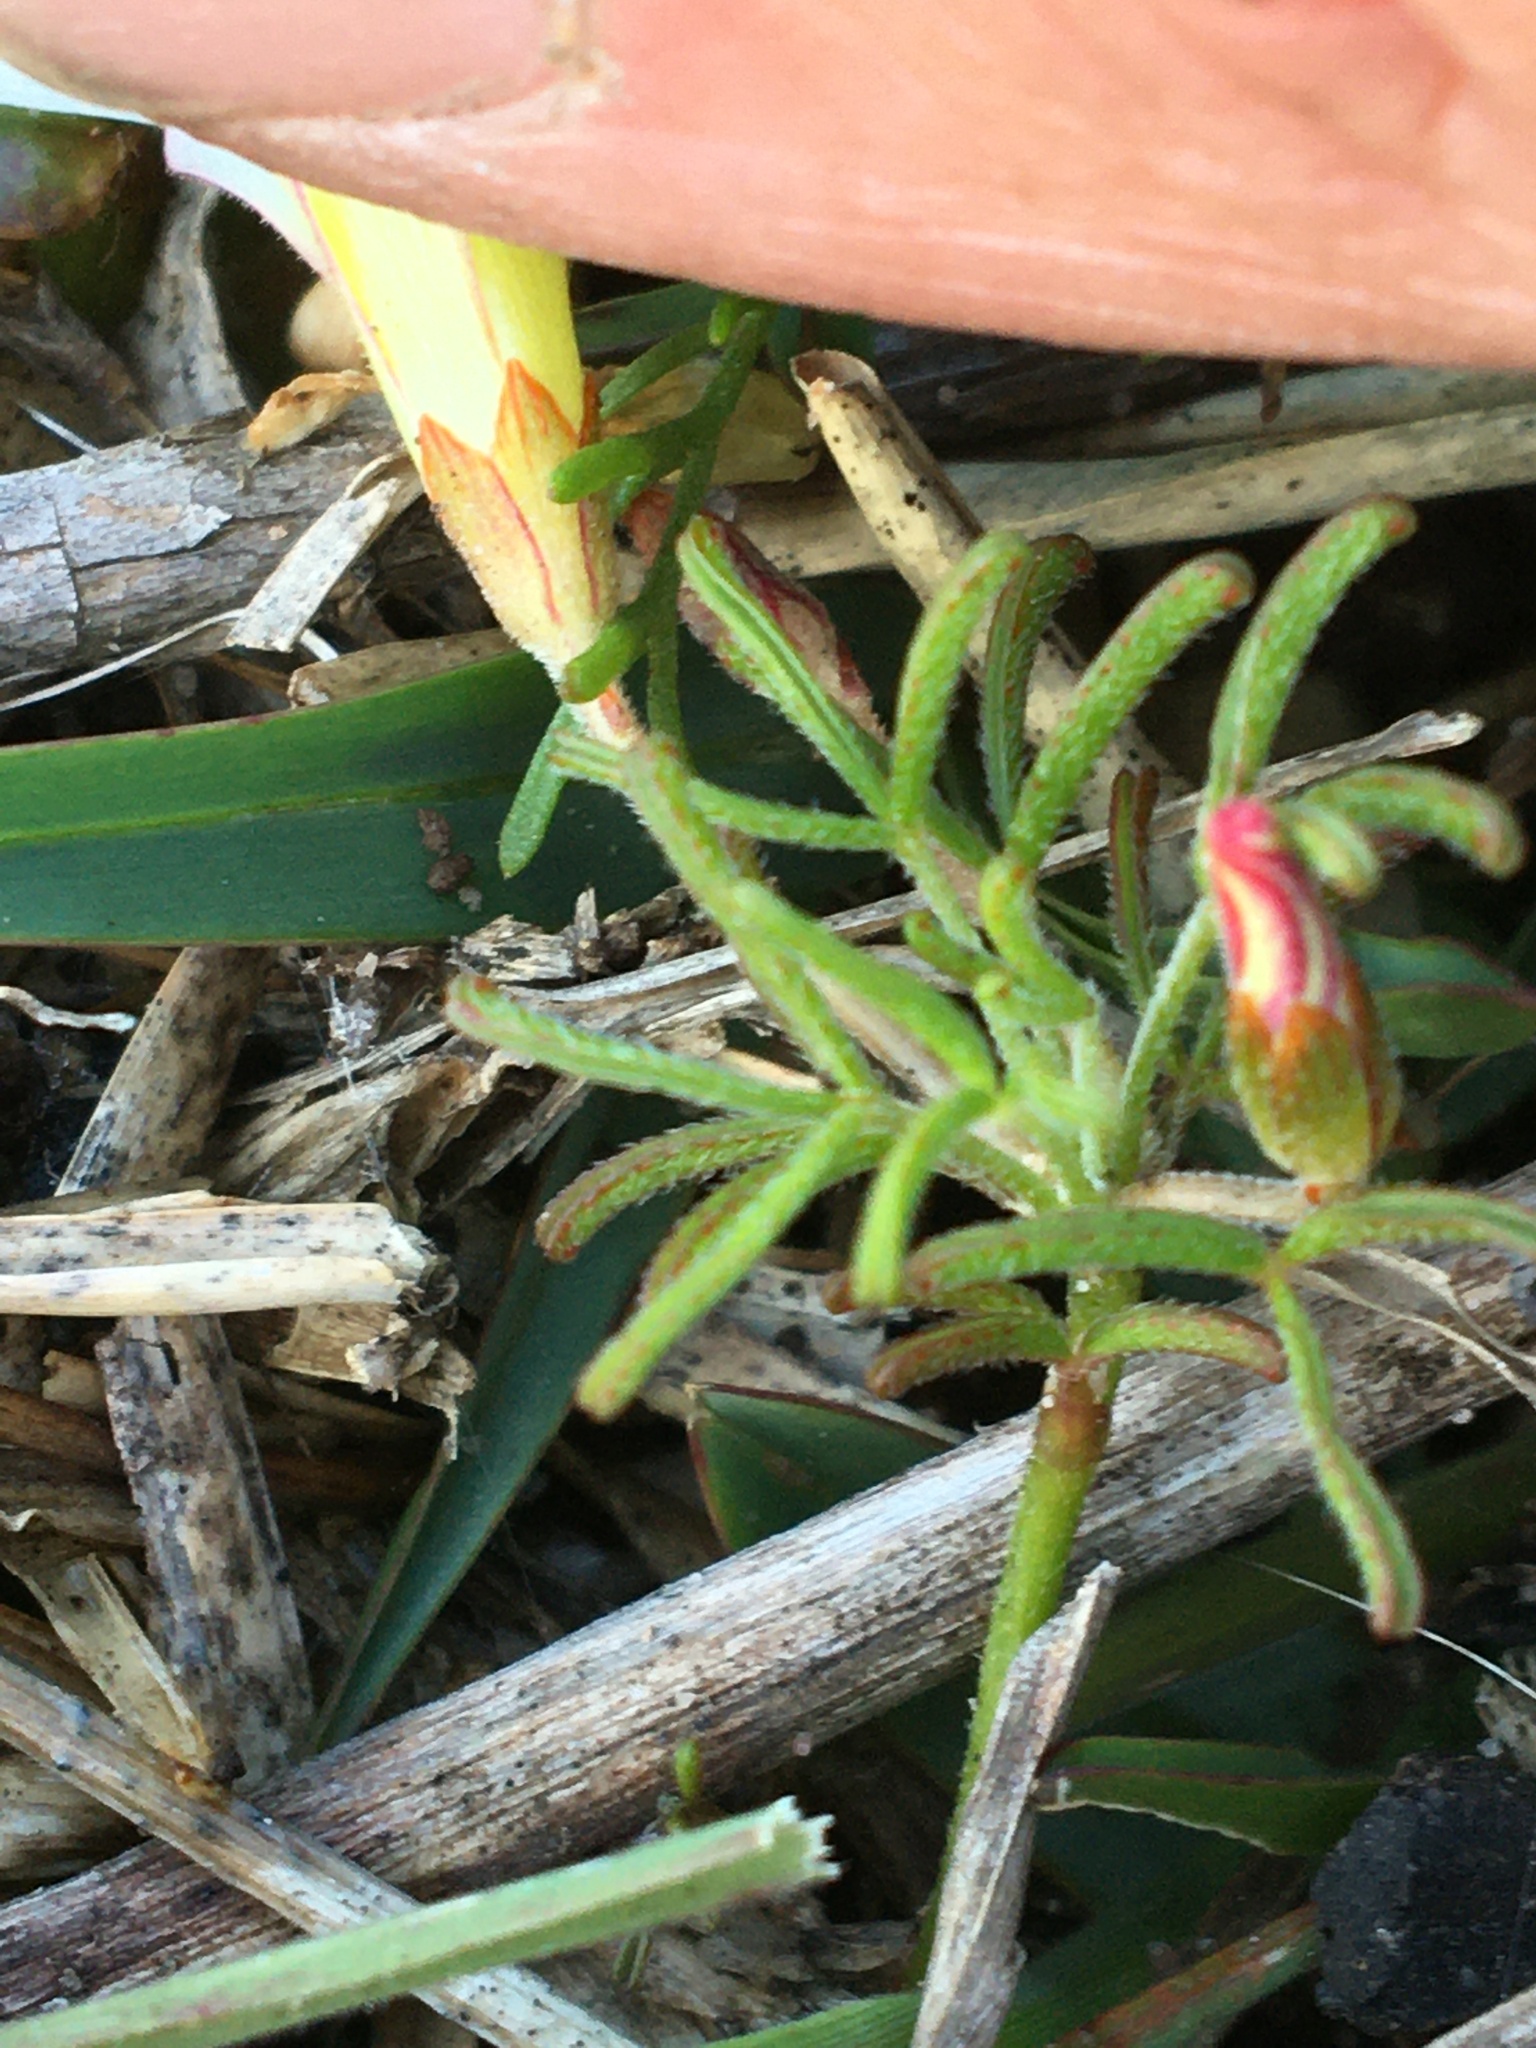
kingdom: Plantae
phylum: Tracheophyta
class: Magnoliopsida
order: Oxalidales
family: Oxalidaceae
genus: Oxalis
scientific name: Oxalis versicolor
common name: Peppermint rock oxalis
